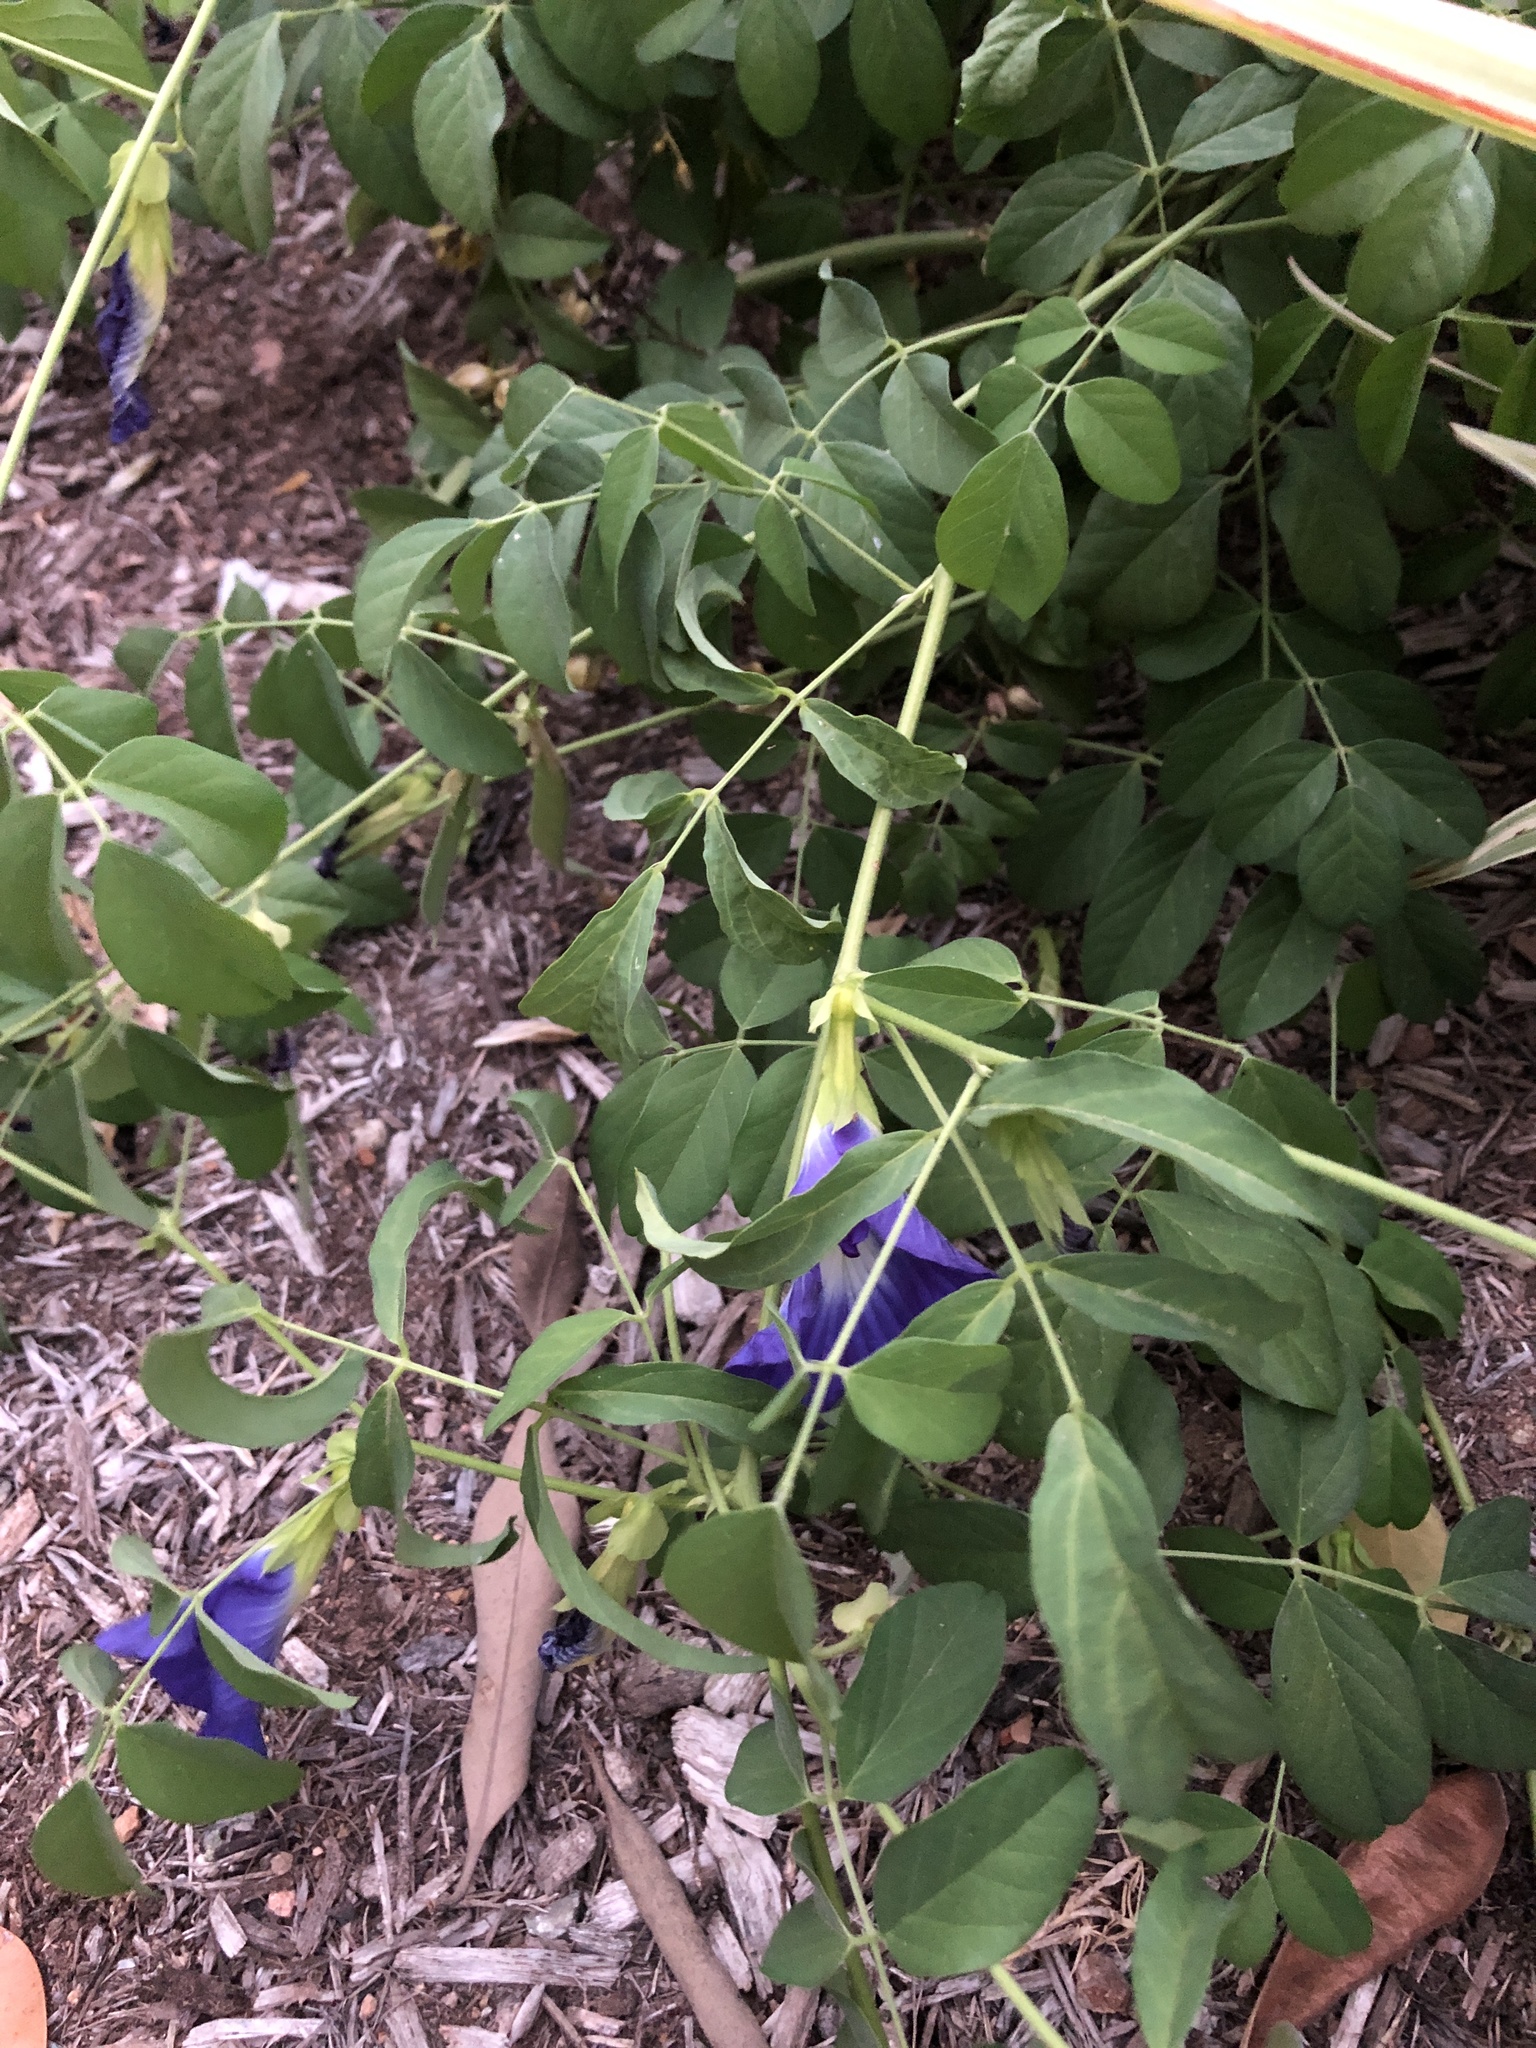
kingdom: Plantae
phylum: Tracheophyta
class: Magnoliopsida
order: Fabales
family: Fabaceae
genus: Clitoria
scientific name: Clitoria ternatea
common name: Asian pigeonwings
